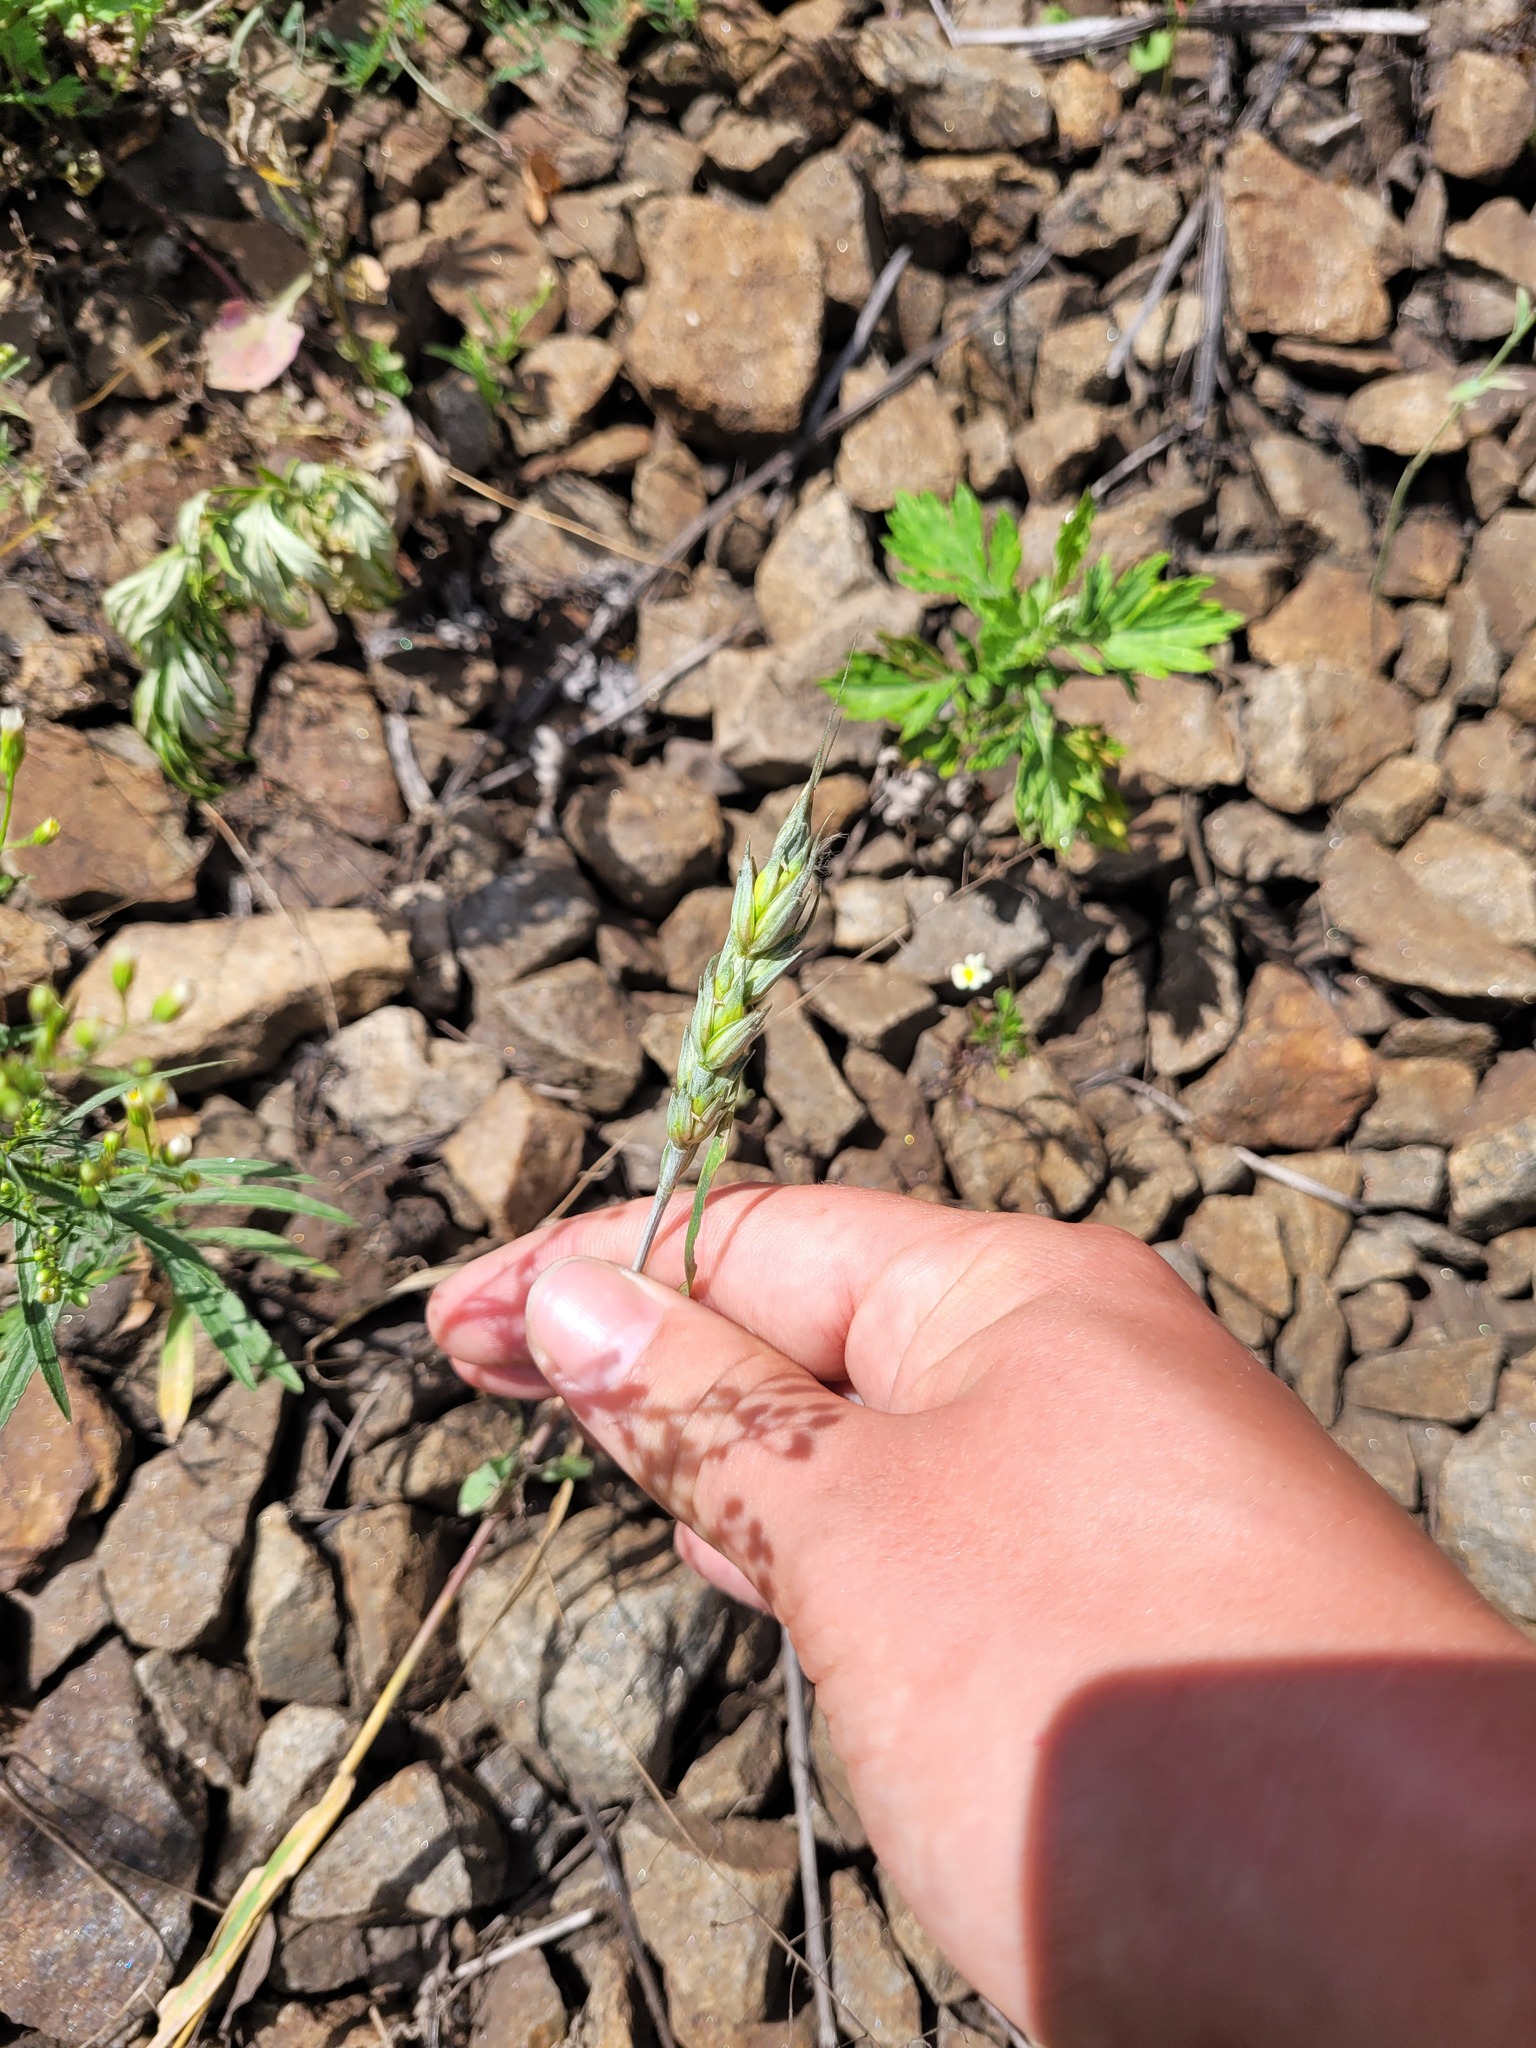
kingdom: Plantae
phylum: Tracheophyta
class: Liliopsida
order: Poales
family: Poaceae
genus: Triticum
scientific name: Triticum aestivum
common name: Common wheat
